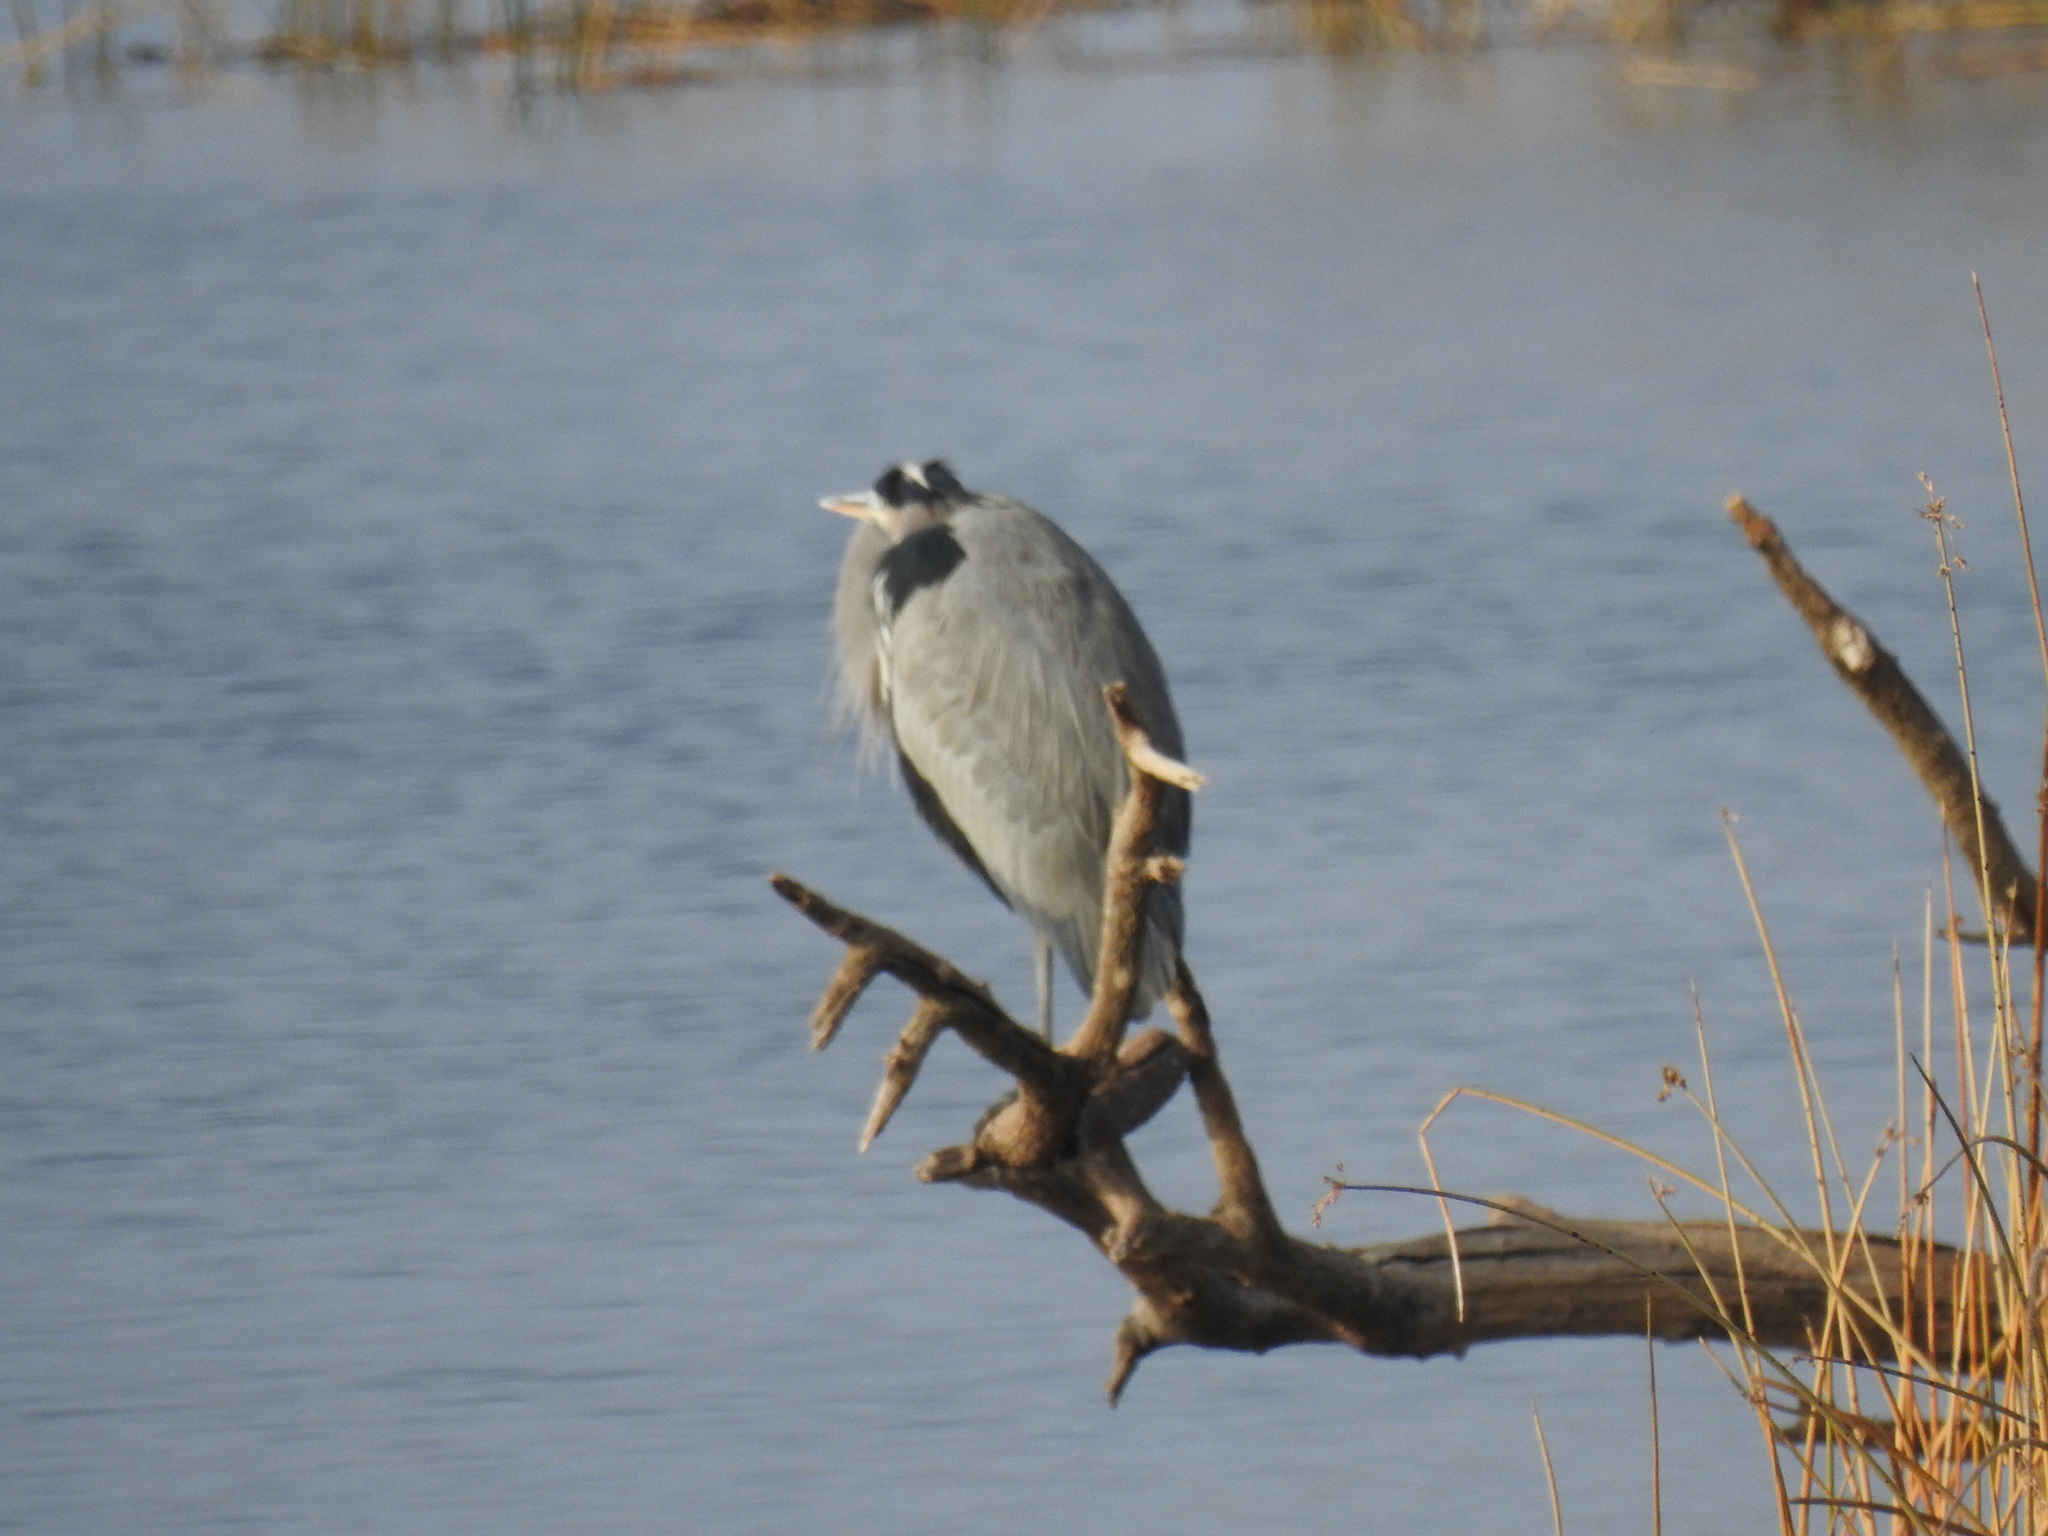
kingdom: Animalia
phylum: Chordata
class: Aves
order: Pelecaniformes
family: Ardeidae
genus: Ardea
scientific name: Ardea herodias
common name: Great blue heron
